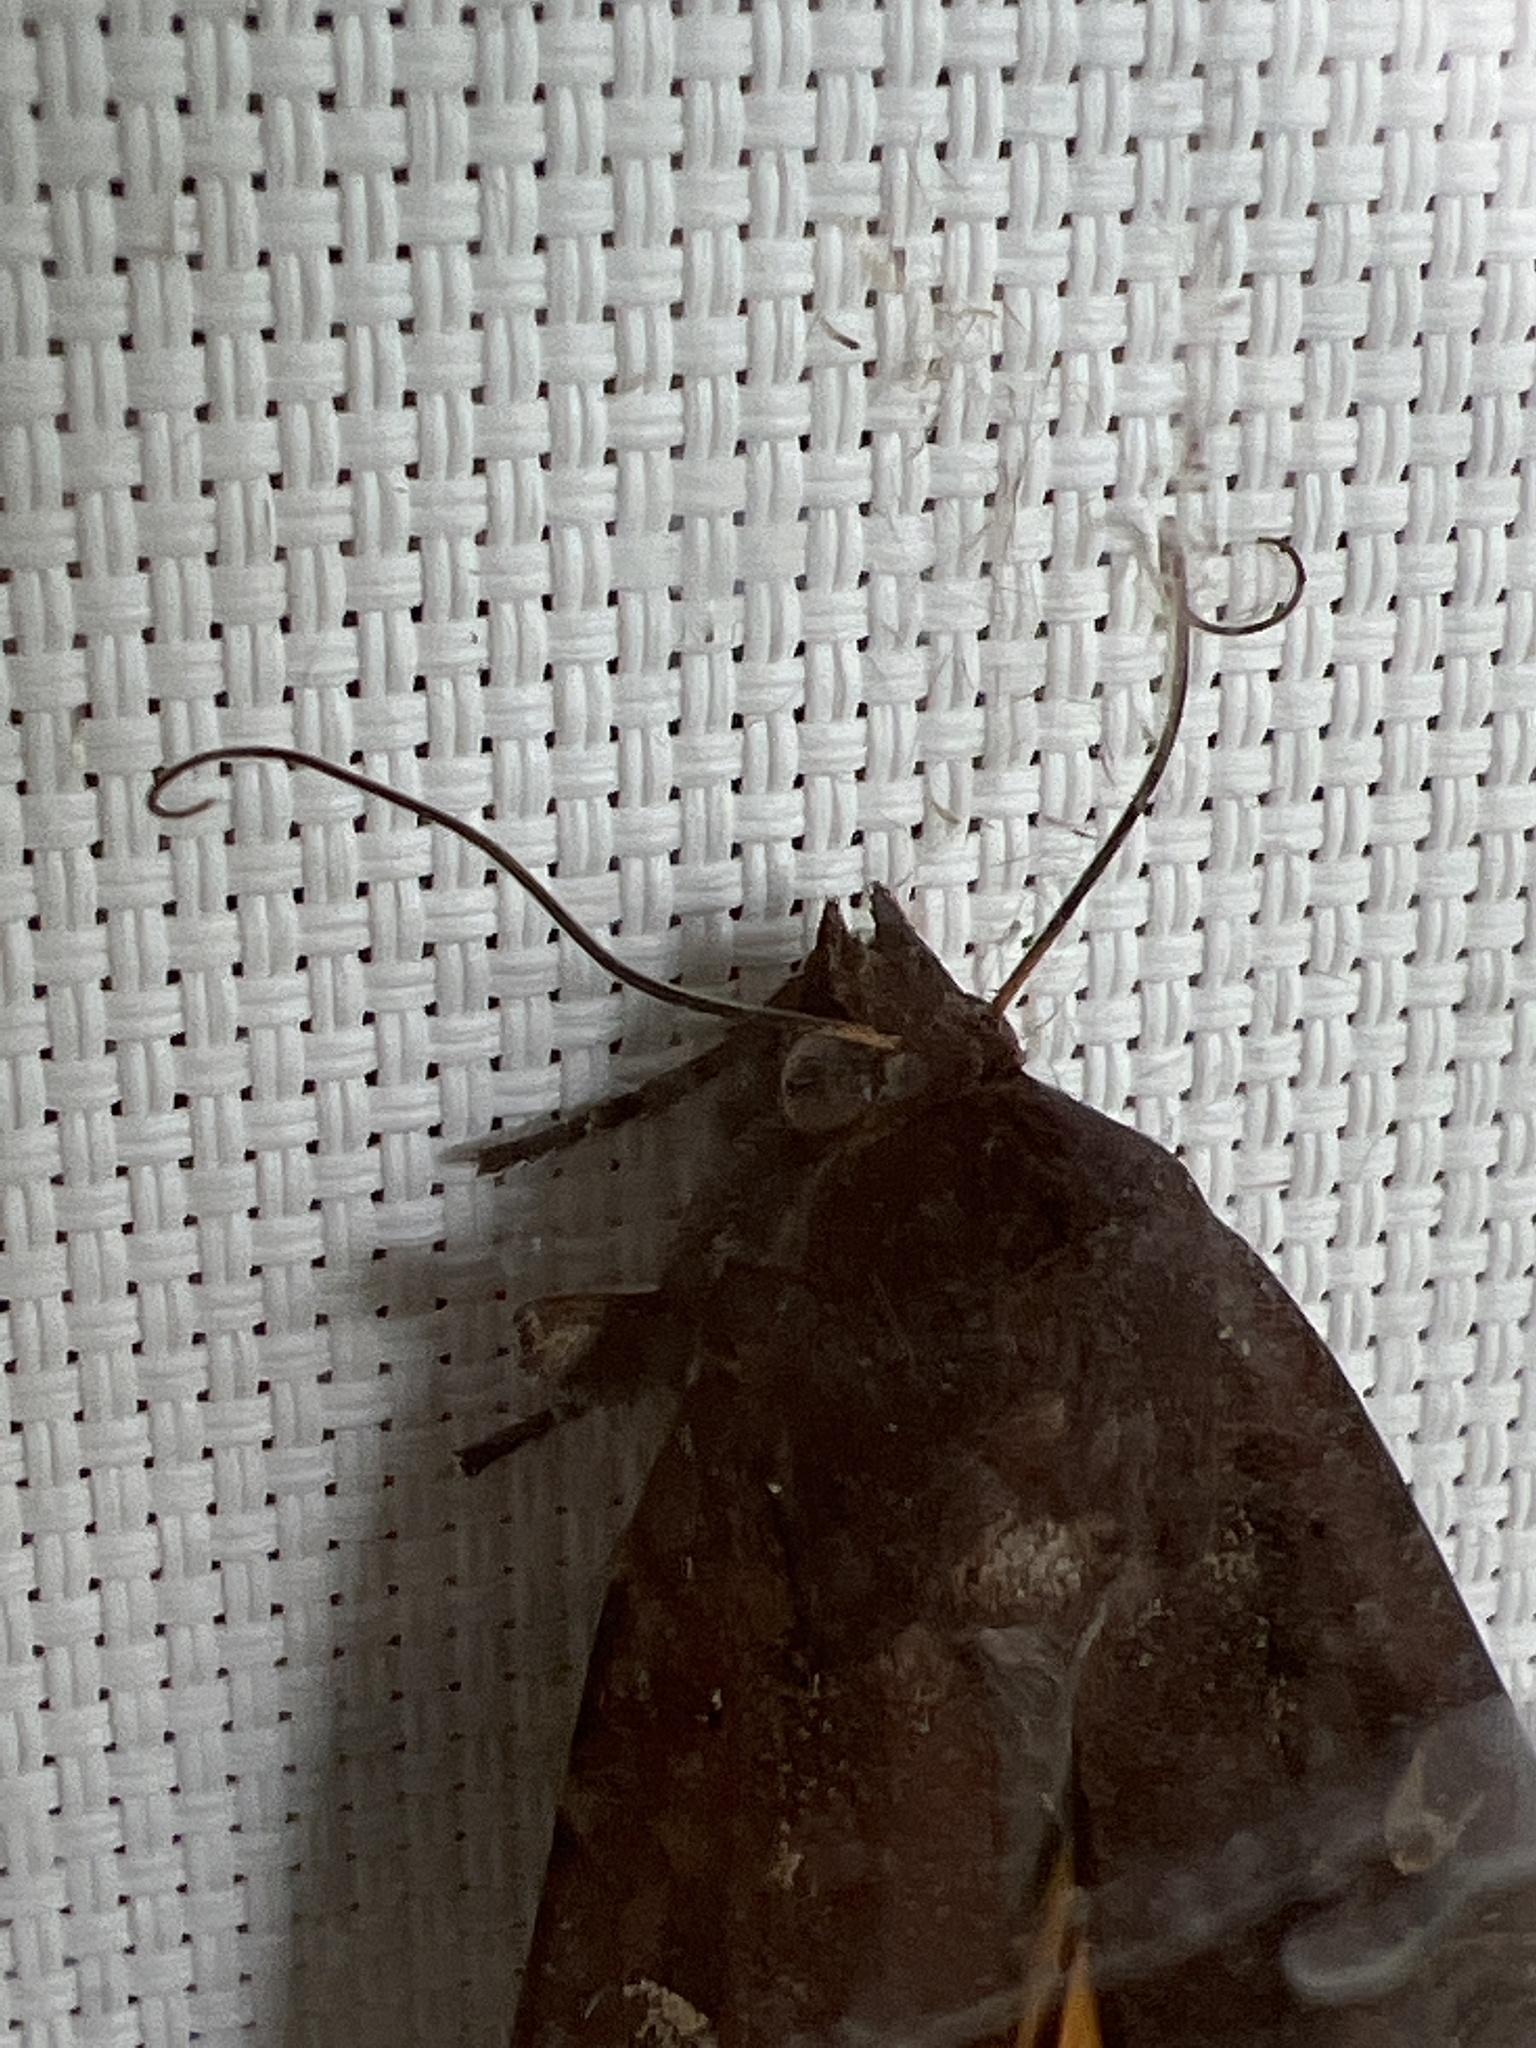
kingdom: Animalia
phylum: Arthropoda
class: Insecta
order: Lepidoptera
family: Noctuidae
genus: Noctua
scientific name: Noctua pronuba
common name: Large yellow underwing
